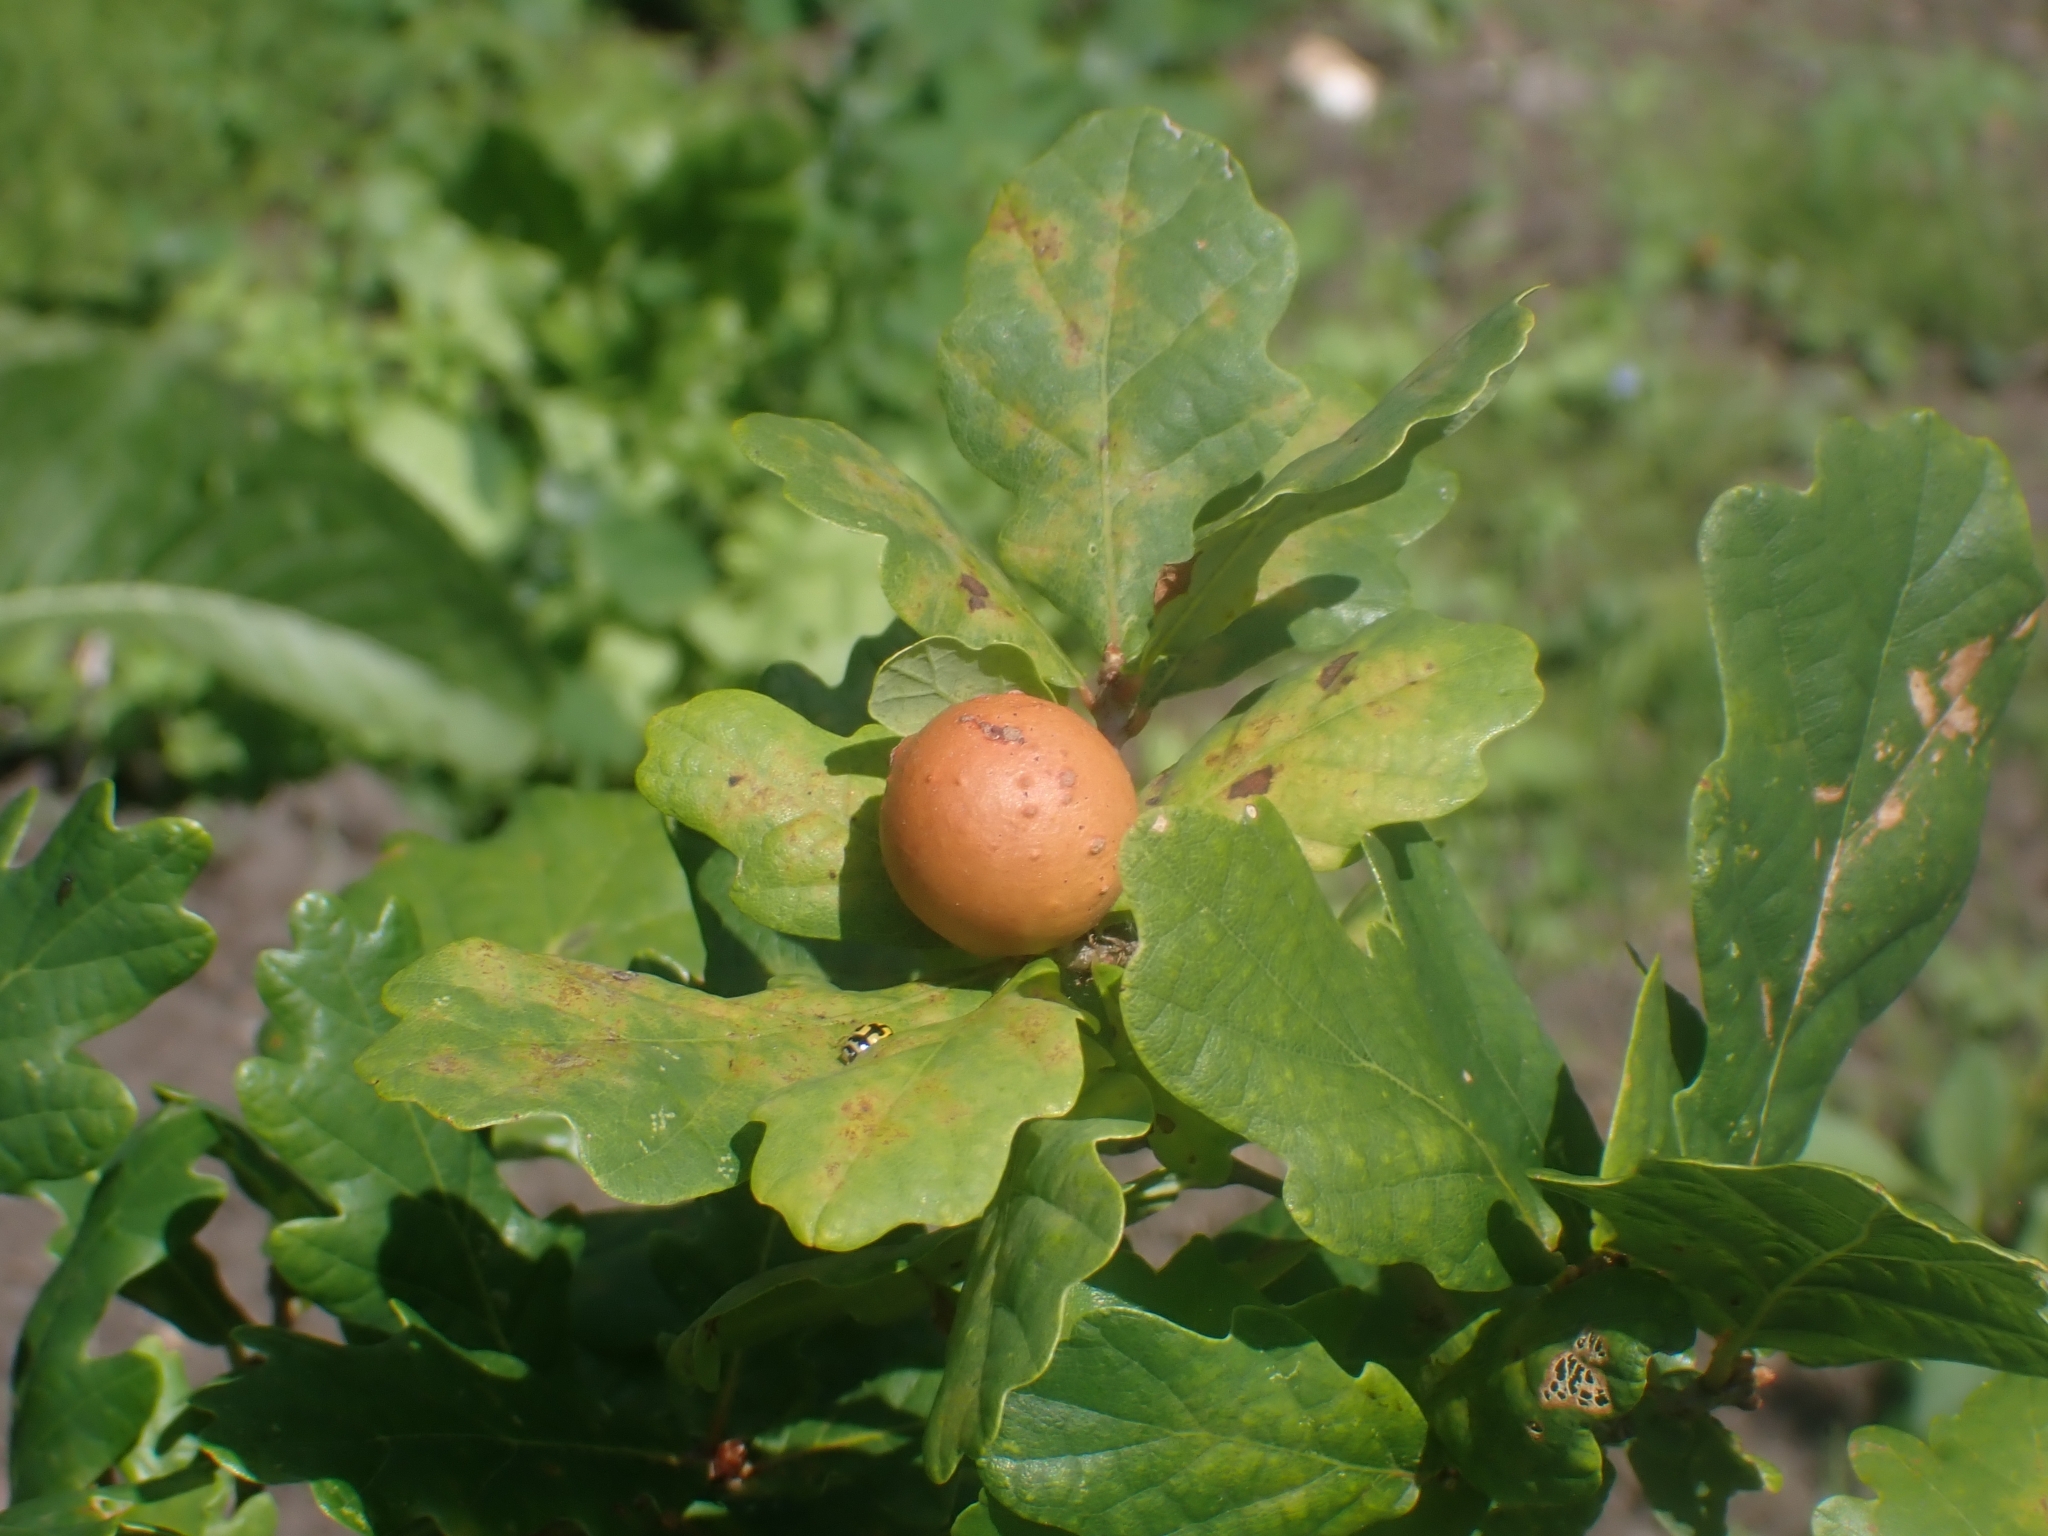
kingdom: Animalia
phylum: Arthropoda
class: Insecta
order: Hymenoptera
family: Cynipidae
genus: Andricus
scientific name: Andricus kollari
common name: Marble gall
